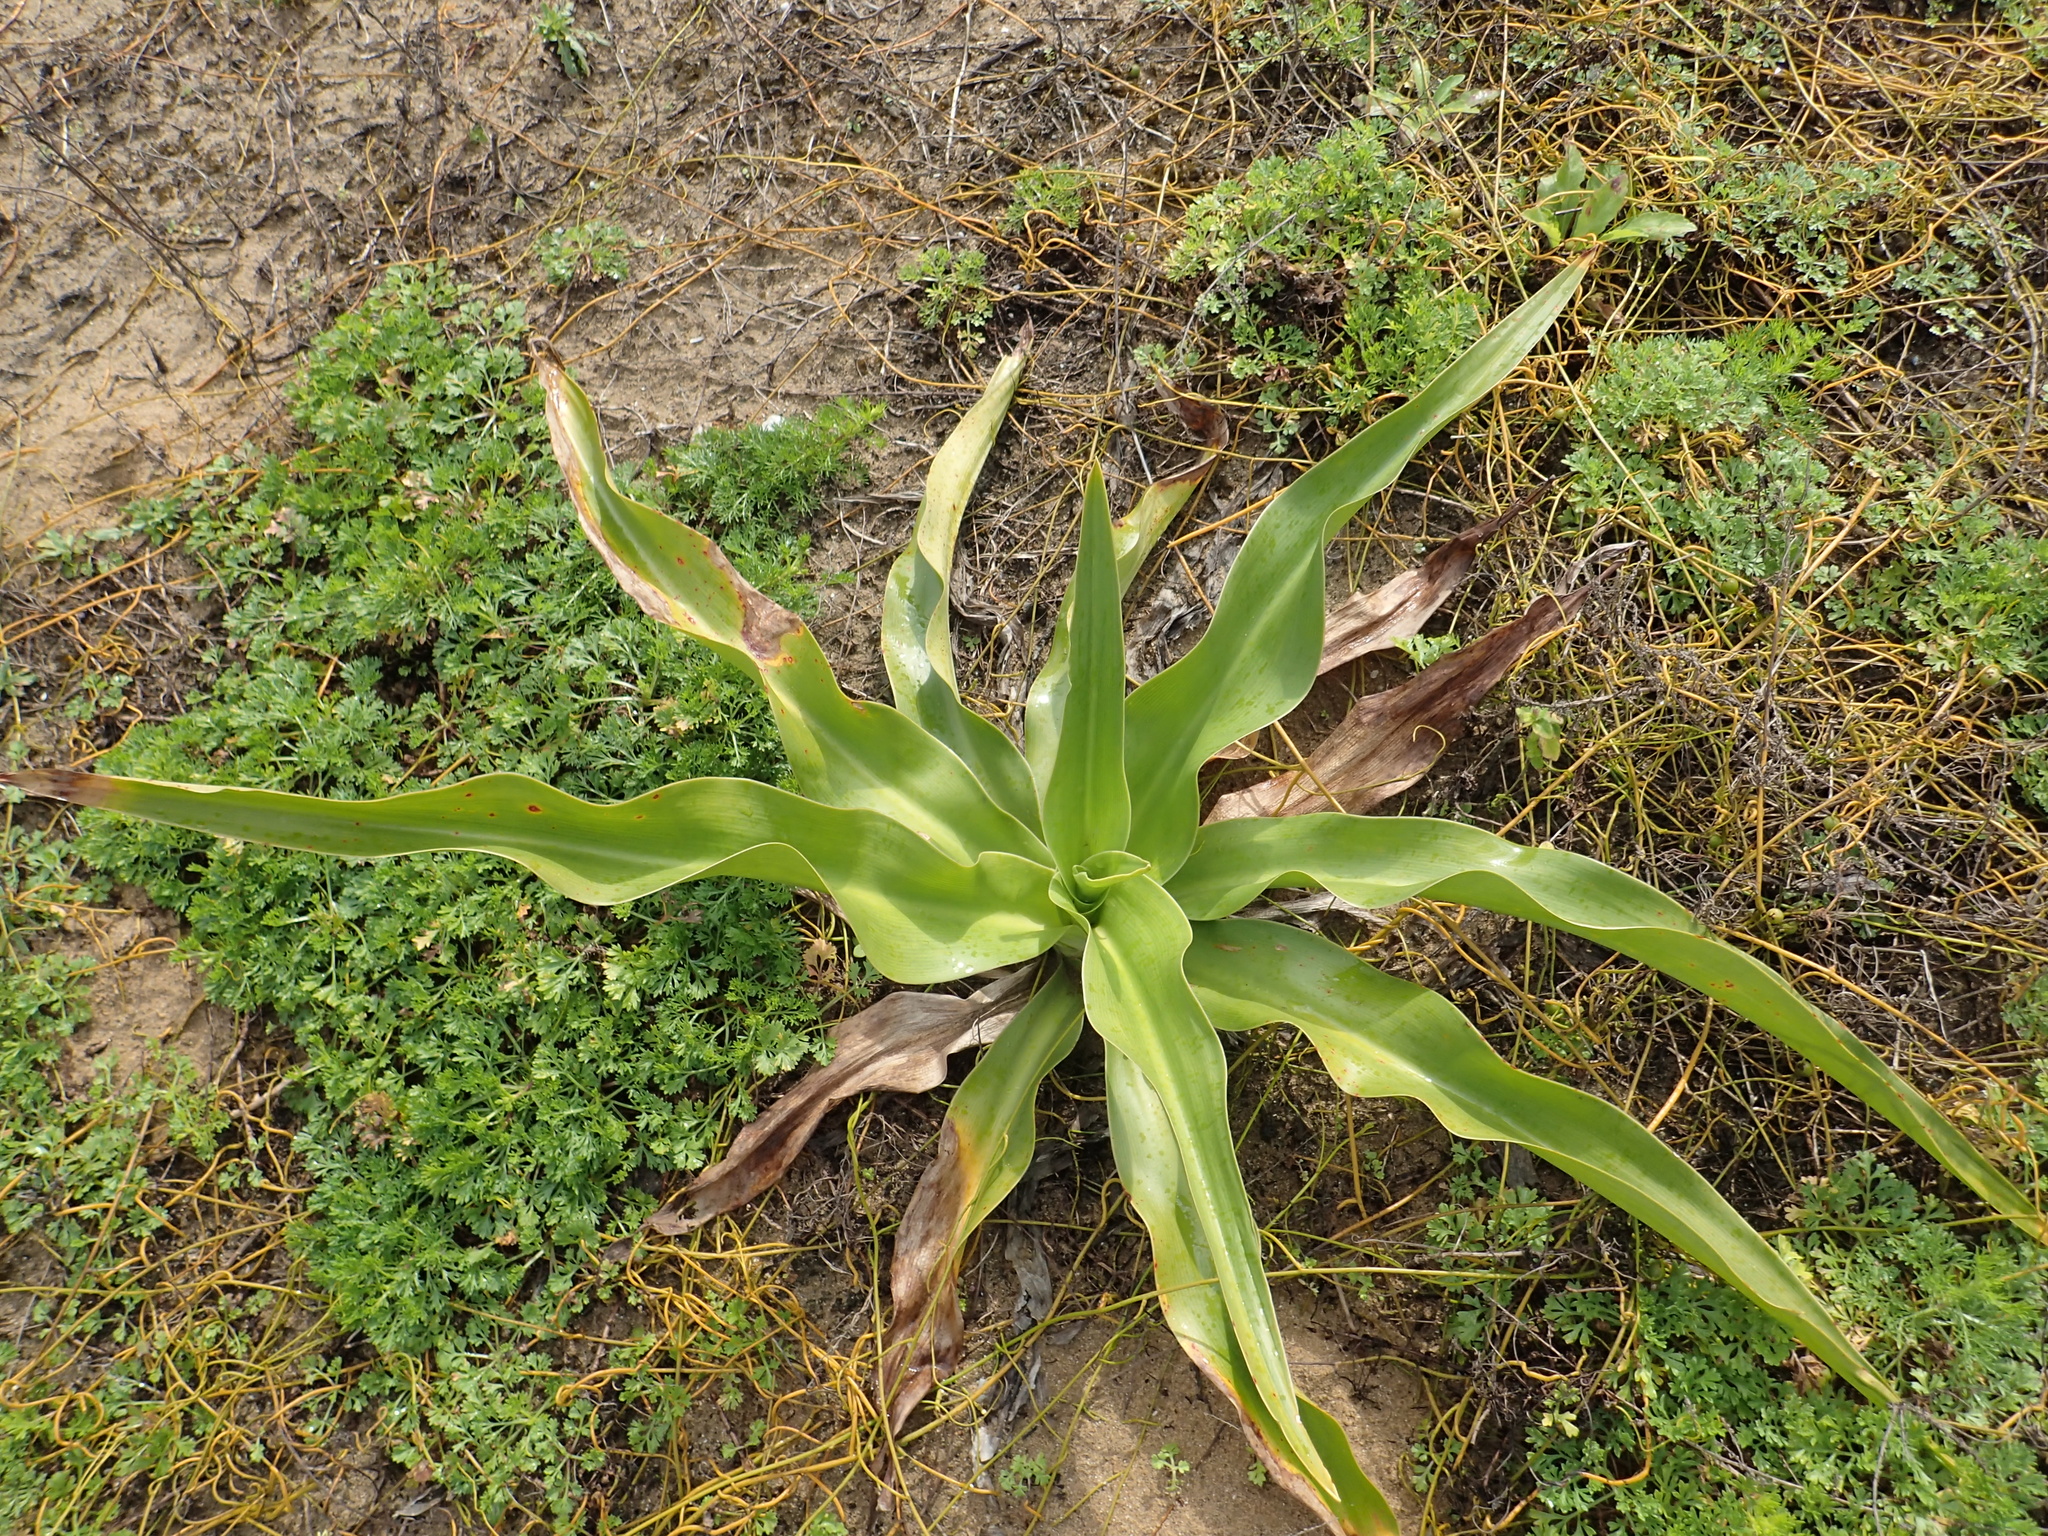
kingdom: Plantae
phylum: Tracheophyta
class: Liliopsida
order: Asparagales
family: Amaryllidaceae
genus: Crinum
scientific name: Crinum asiaticum
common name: Poisonbulb
